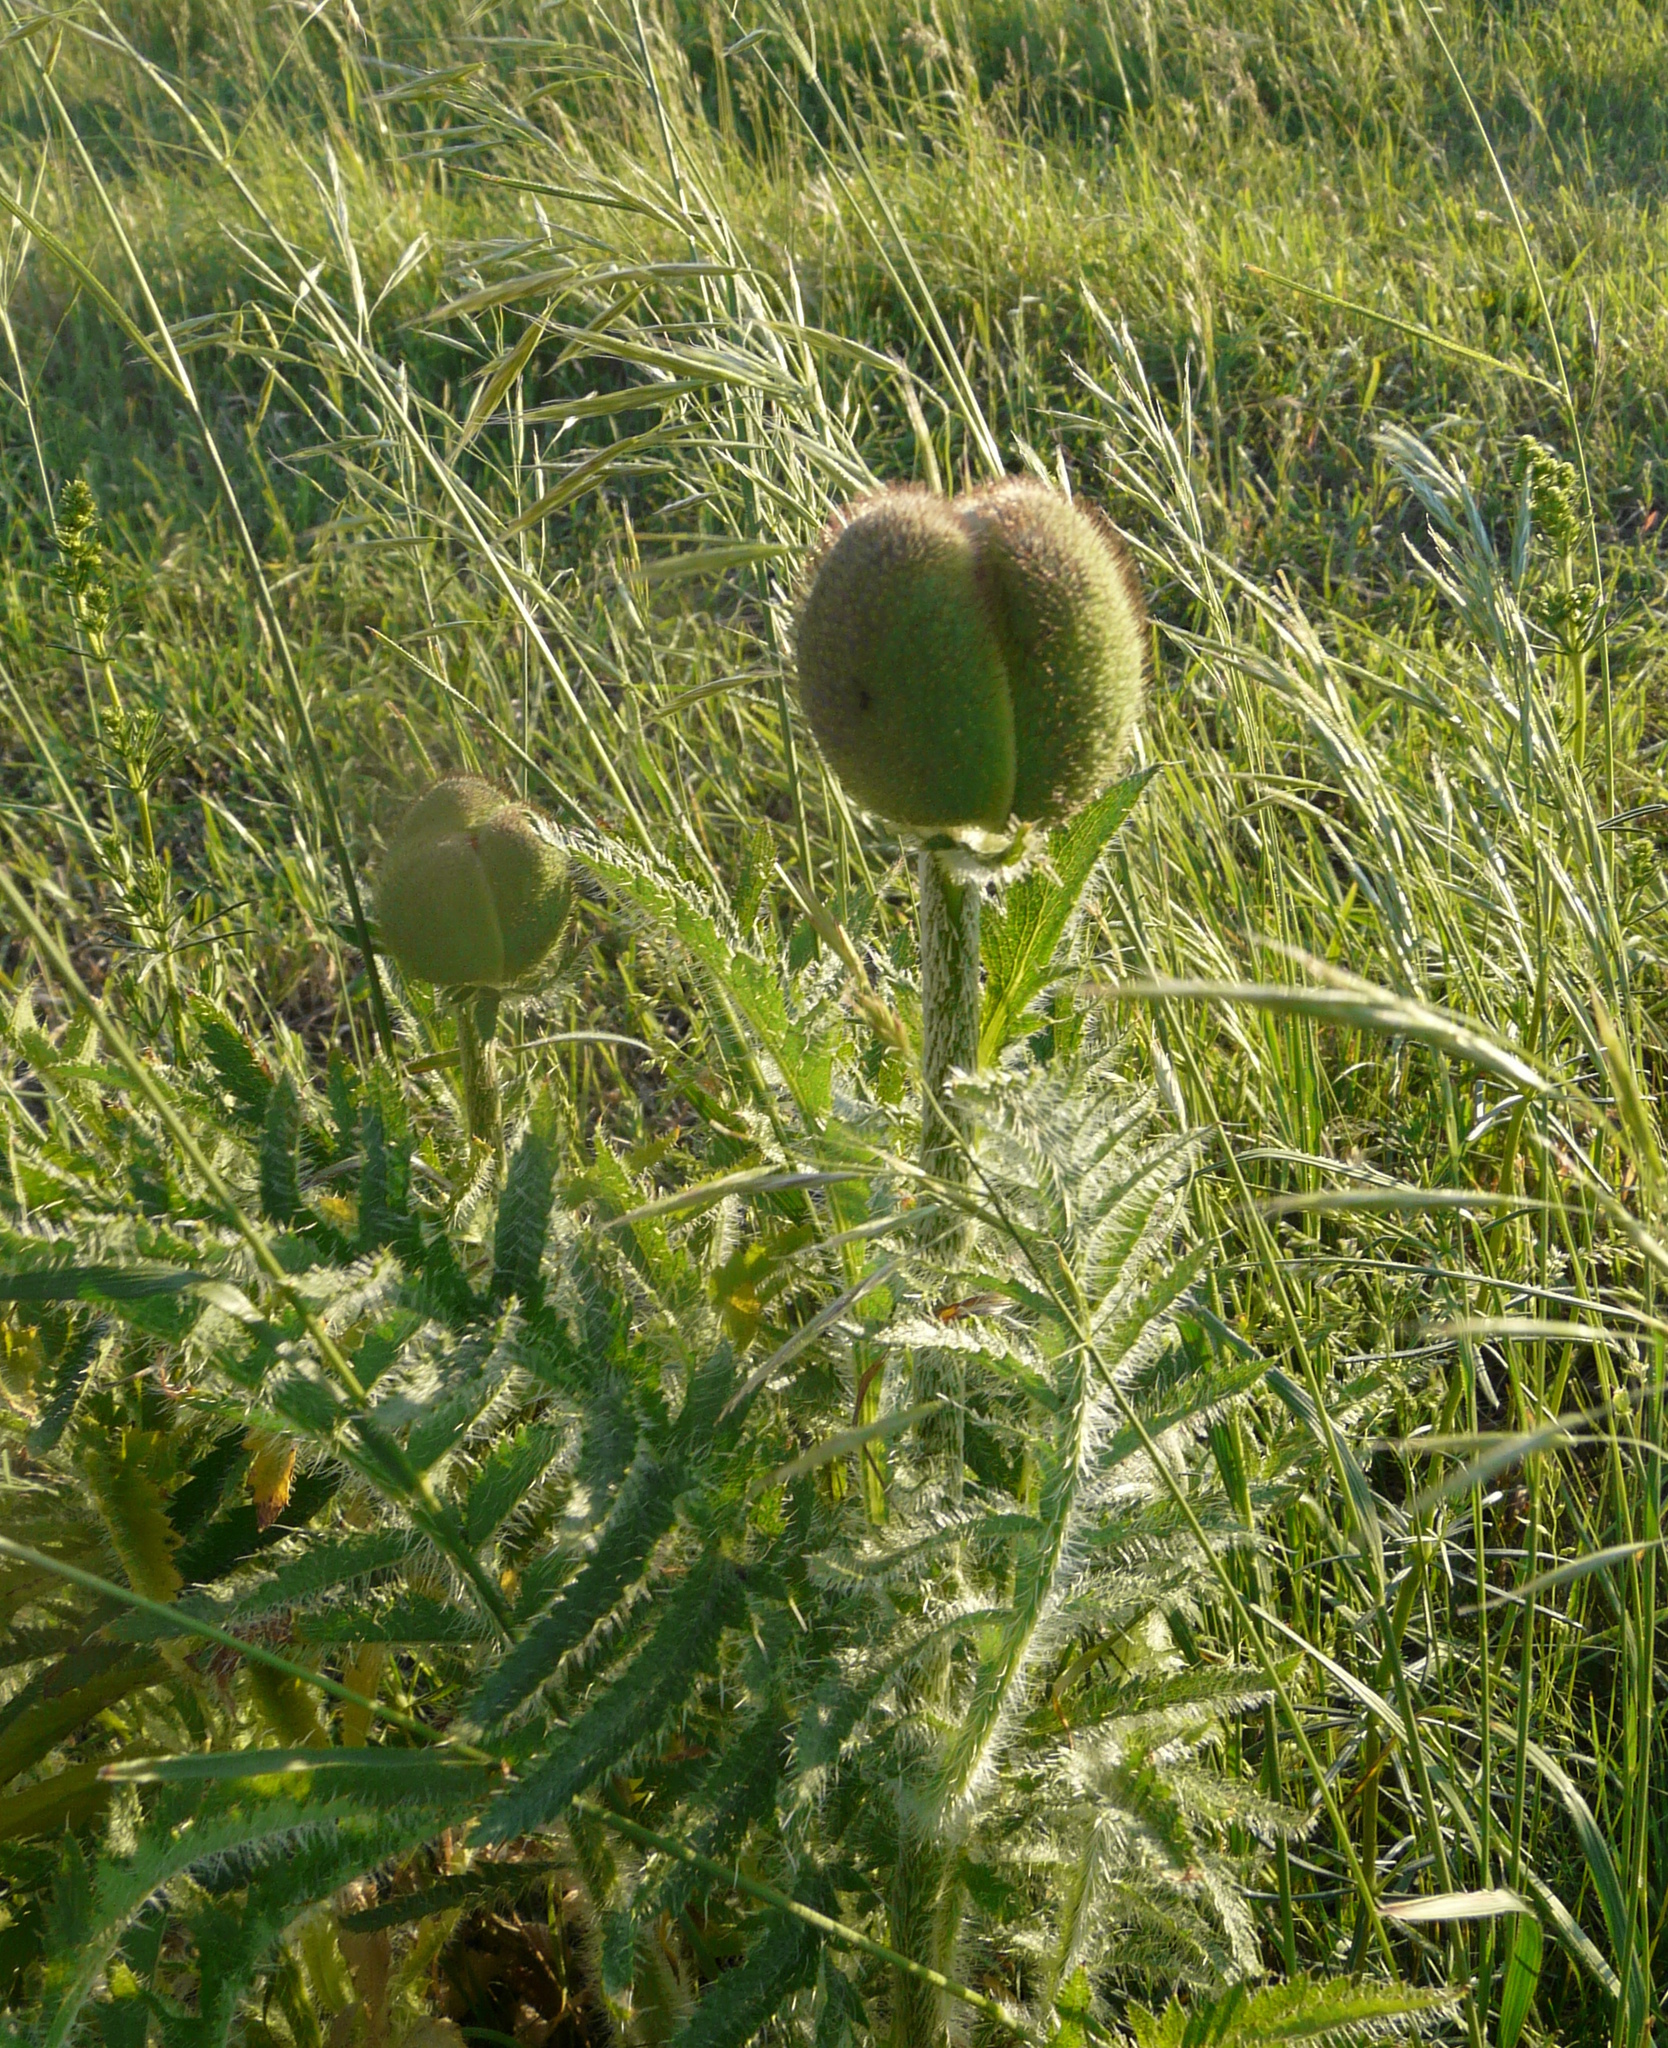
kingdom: Plantae
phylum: Tracheophyta
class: Magnoliopsida
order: Ranunculales
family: Papaveraceae
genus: Papaver
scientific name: Papaver orientale
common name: Oriental poppy
